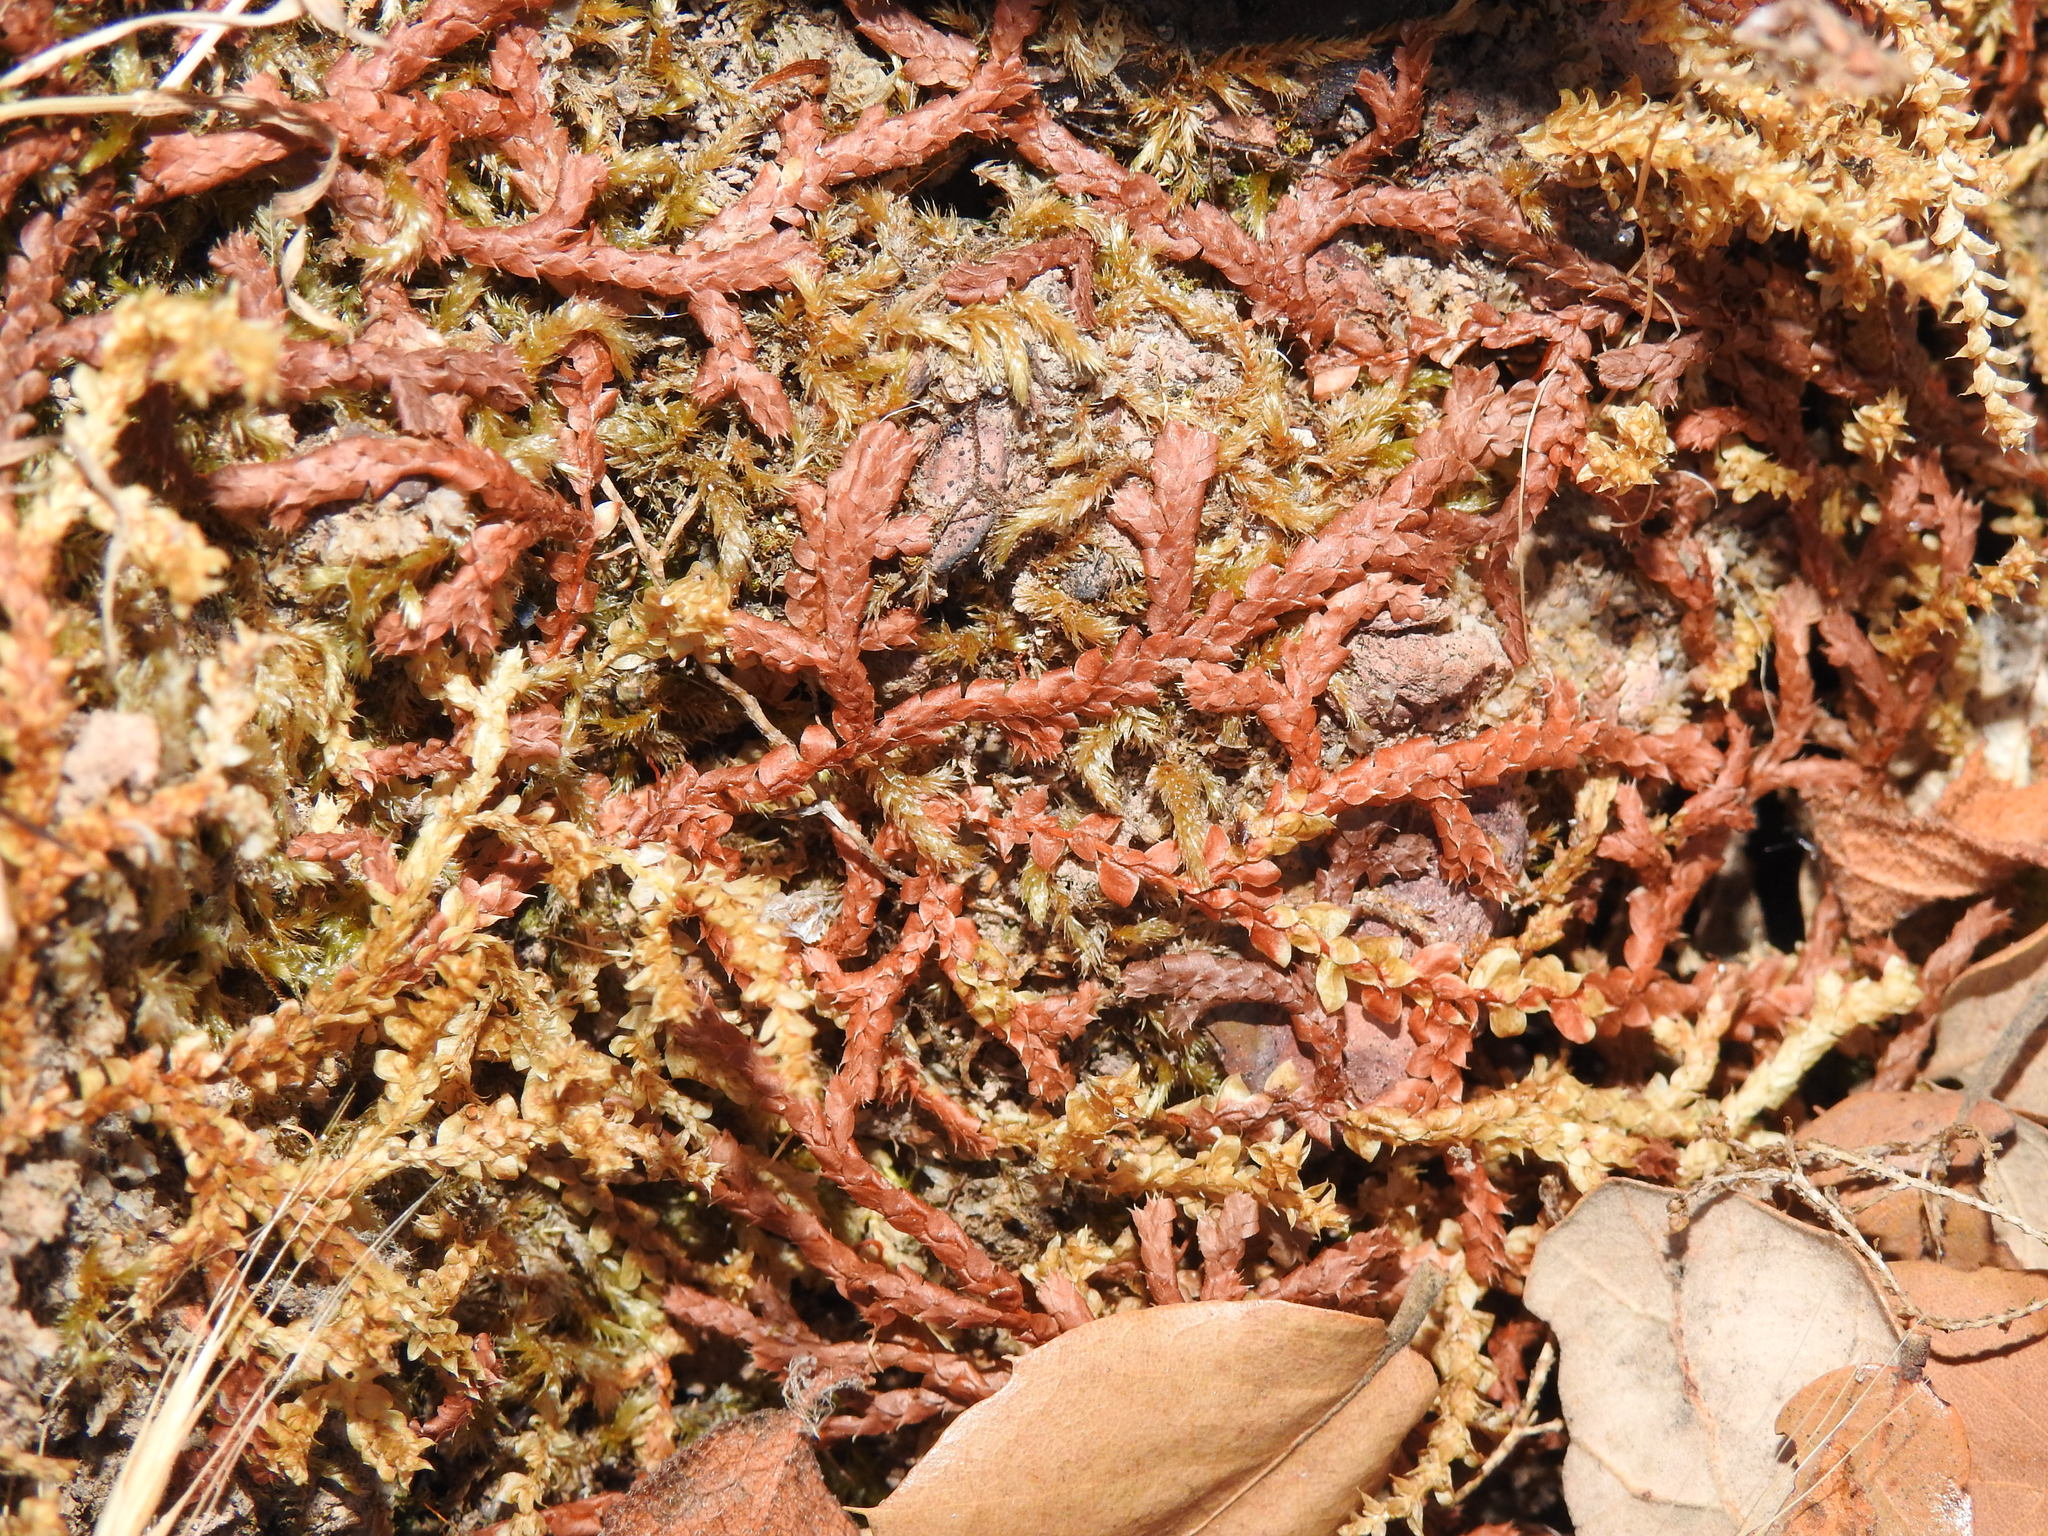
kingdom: Plantae
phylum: Tracheophyta
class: Lycopodiopsida
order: Selaginellales
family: Selaginellaceae
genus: Selaginella
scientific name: Selaginella denticulata
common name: Toothed-leaved clubmoss
